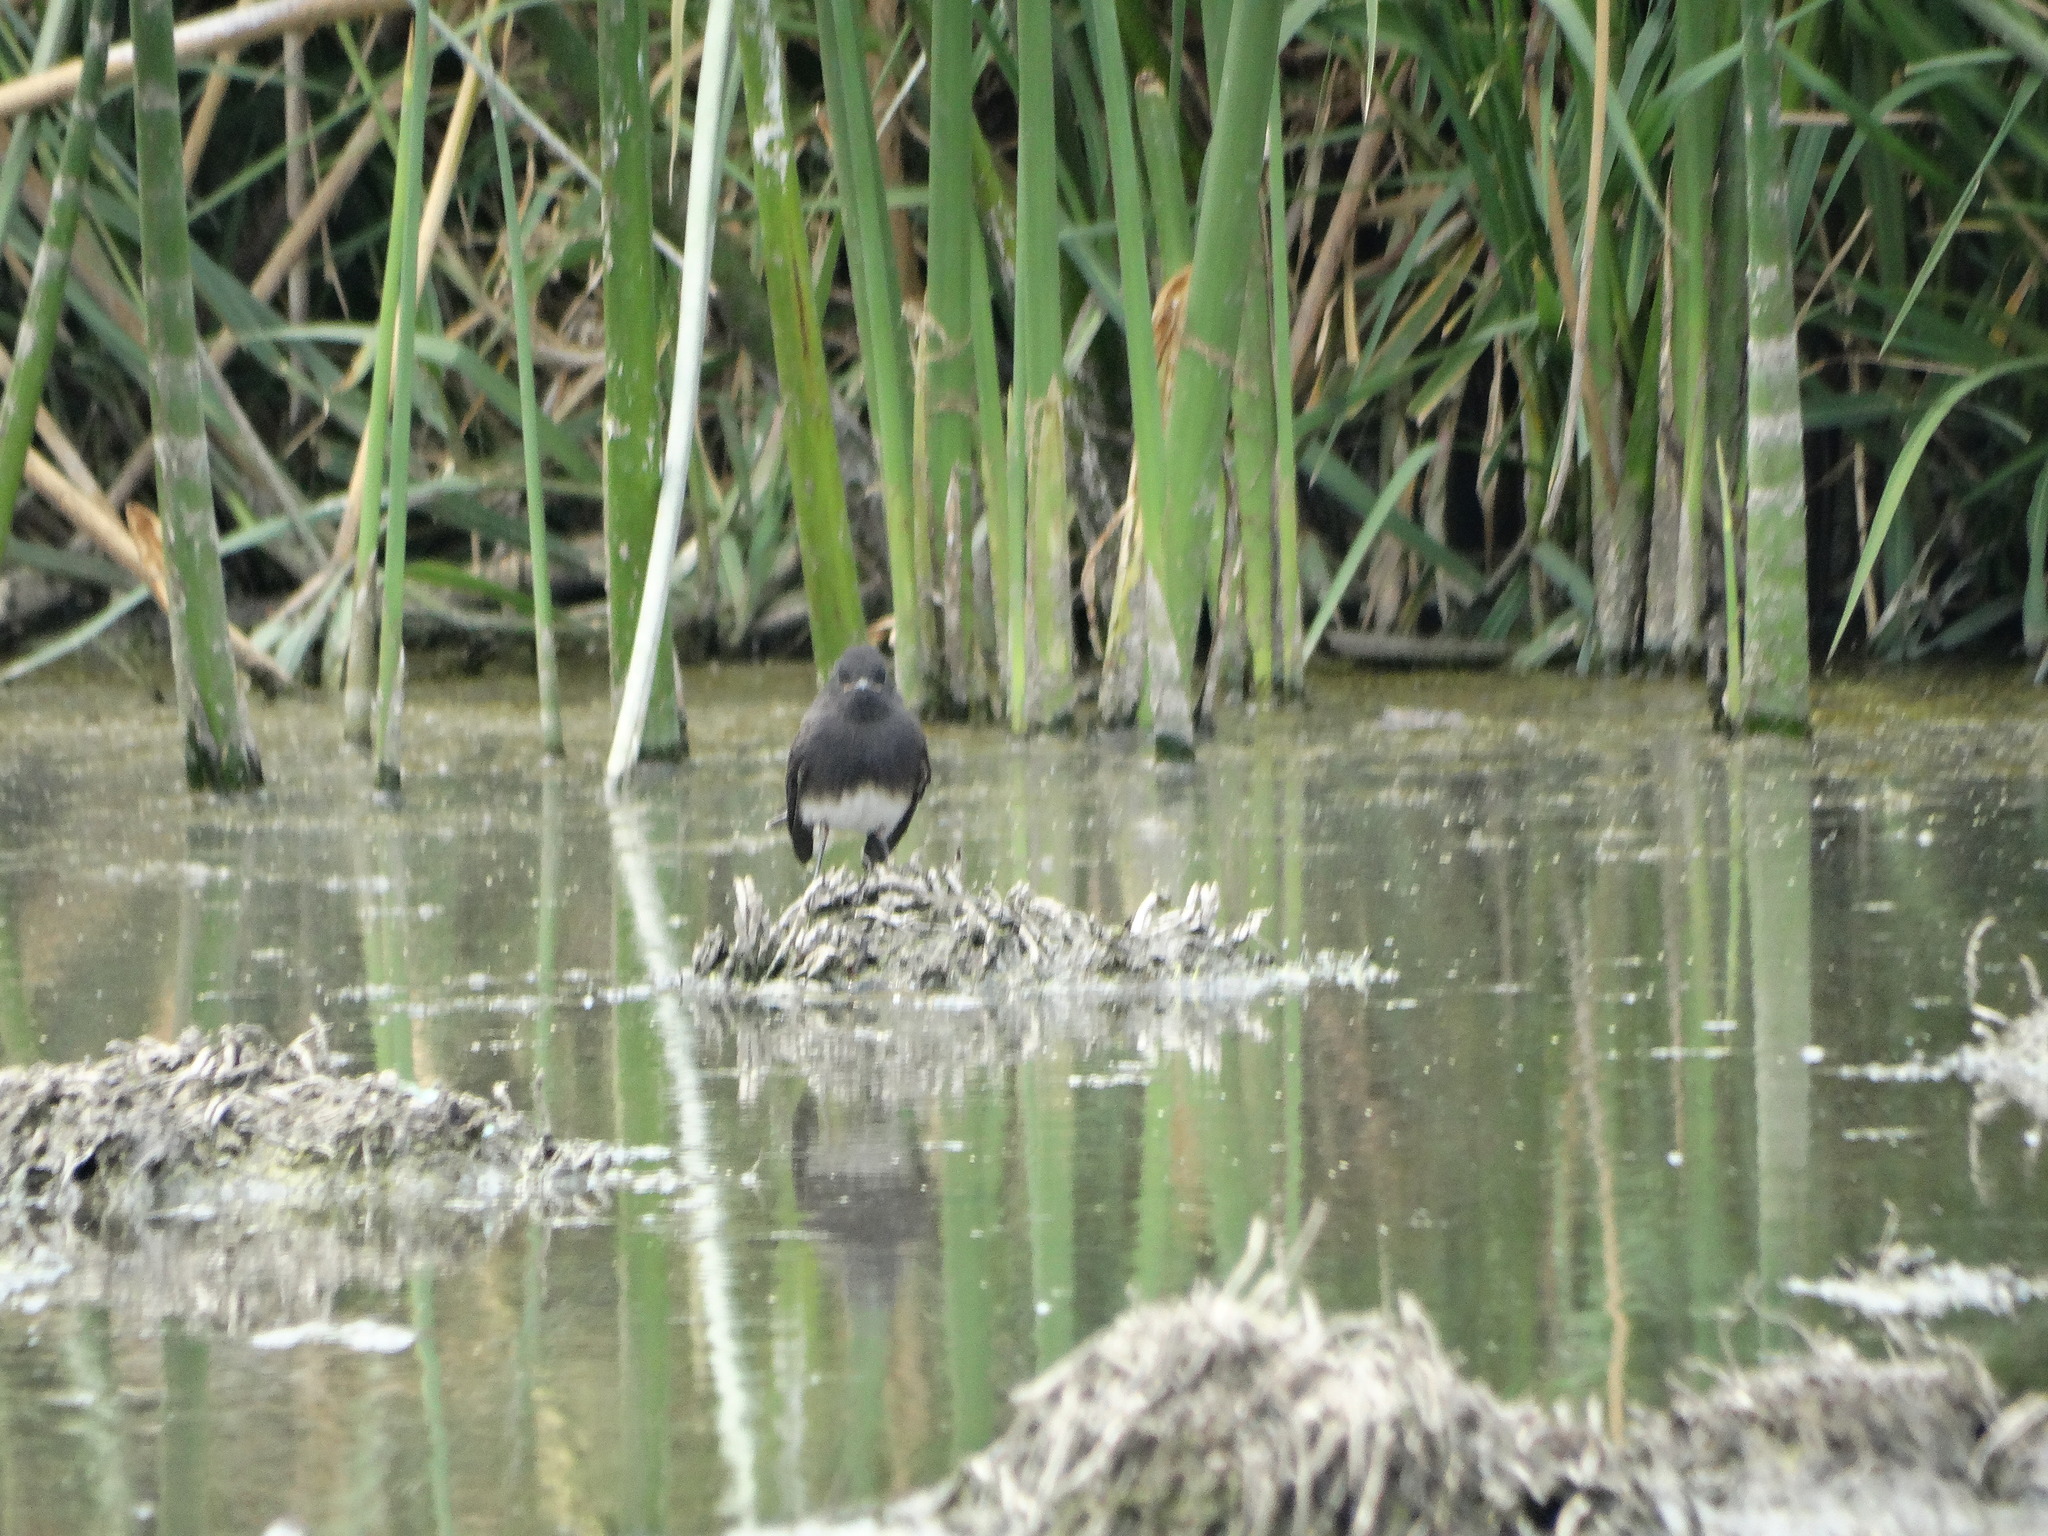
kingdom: Animalia
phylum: Chordata
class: Aves
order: Passeriformes
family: Tyrannidae
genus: Sayornis
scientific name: Sayornis nigricans
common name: Black phoebe
